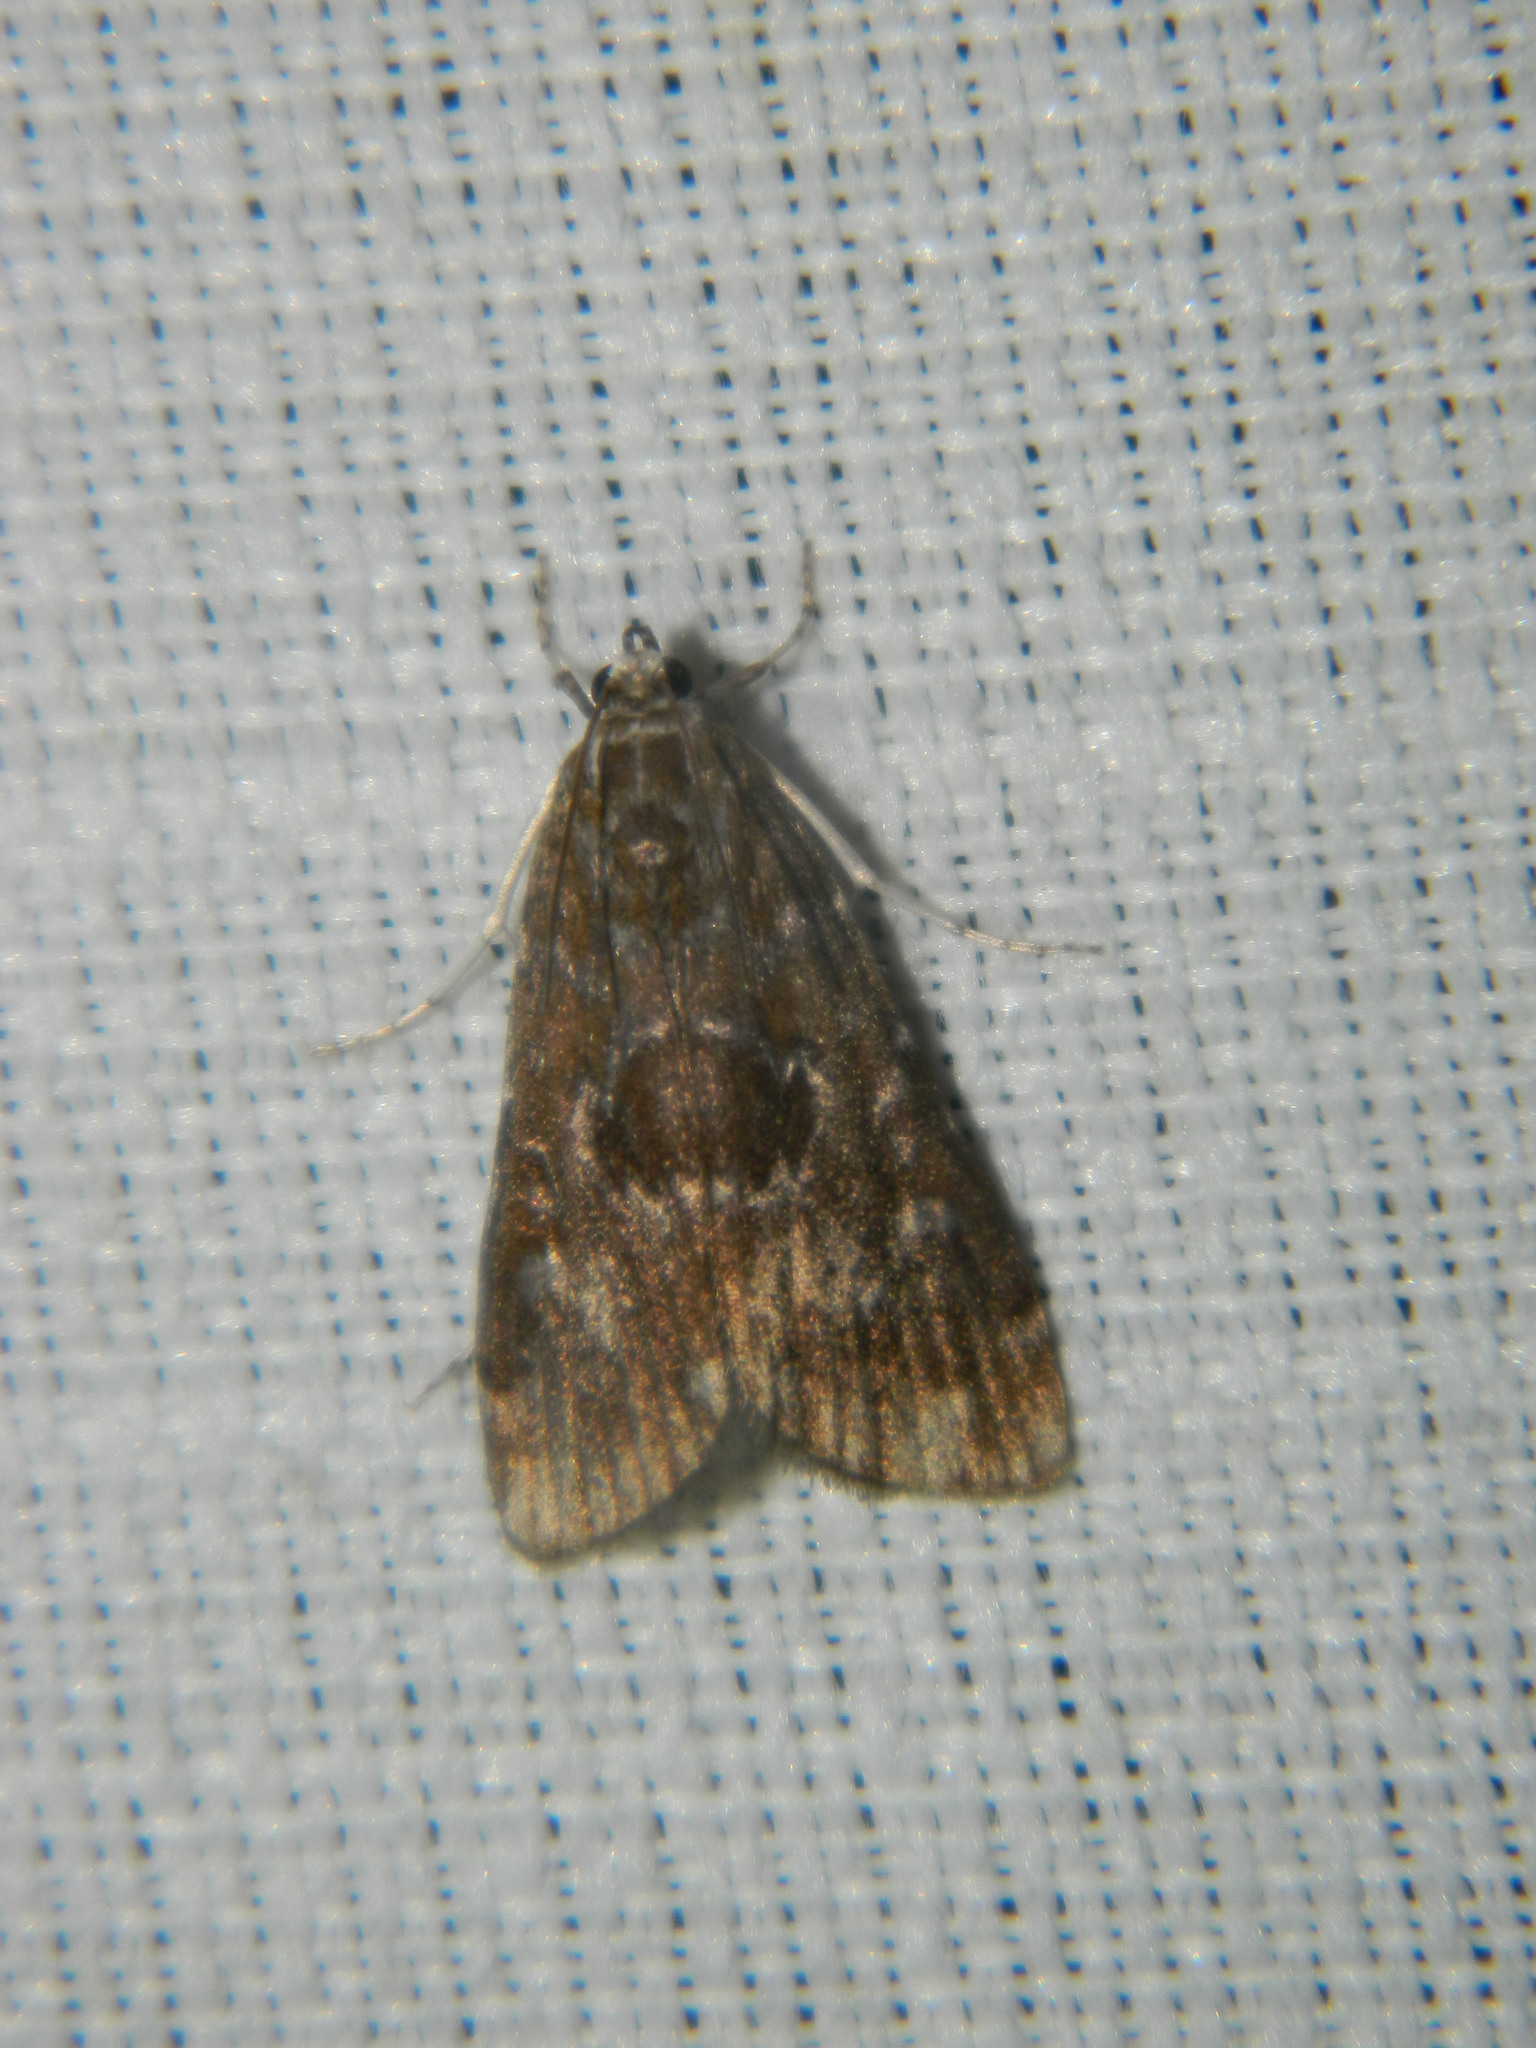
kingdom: Animalia
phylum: Arthropoda
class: Insecta
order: Lepidoptera
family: Crambidae
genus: Elophila
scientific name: Elophila gyralis
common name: Waterlily borer moth
